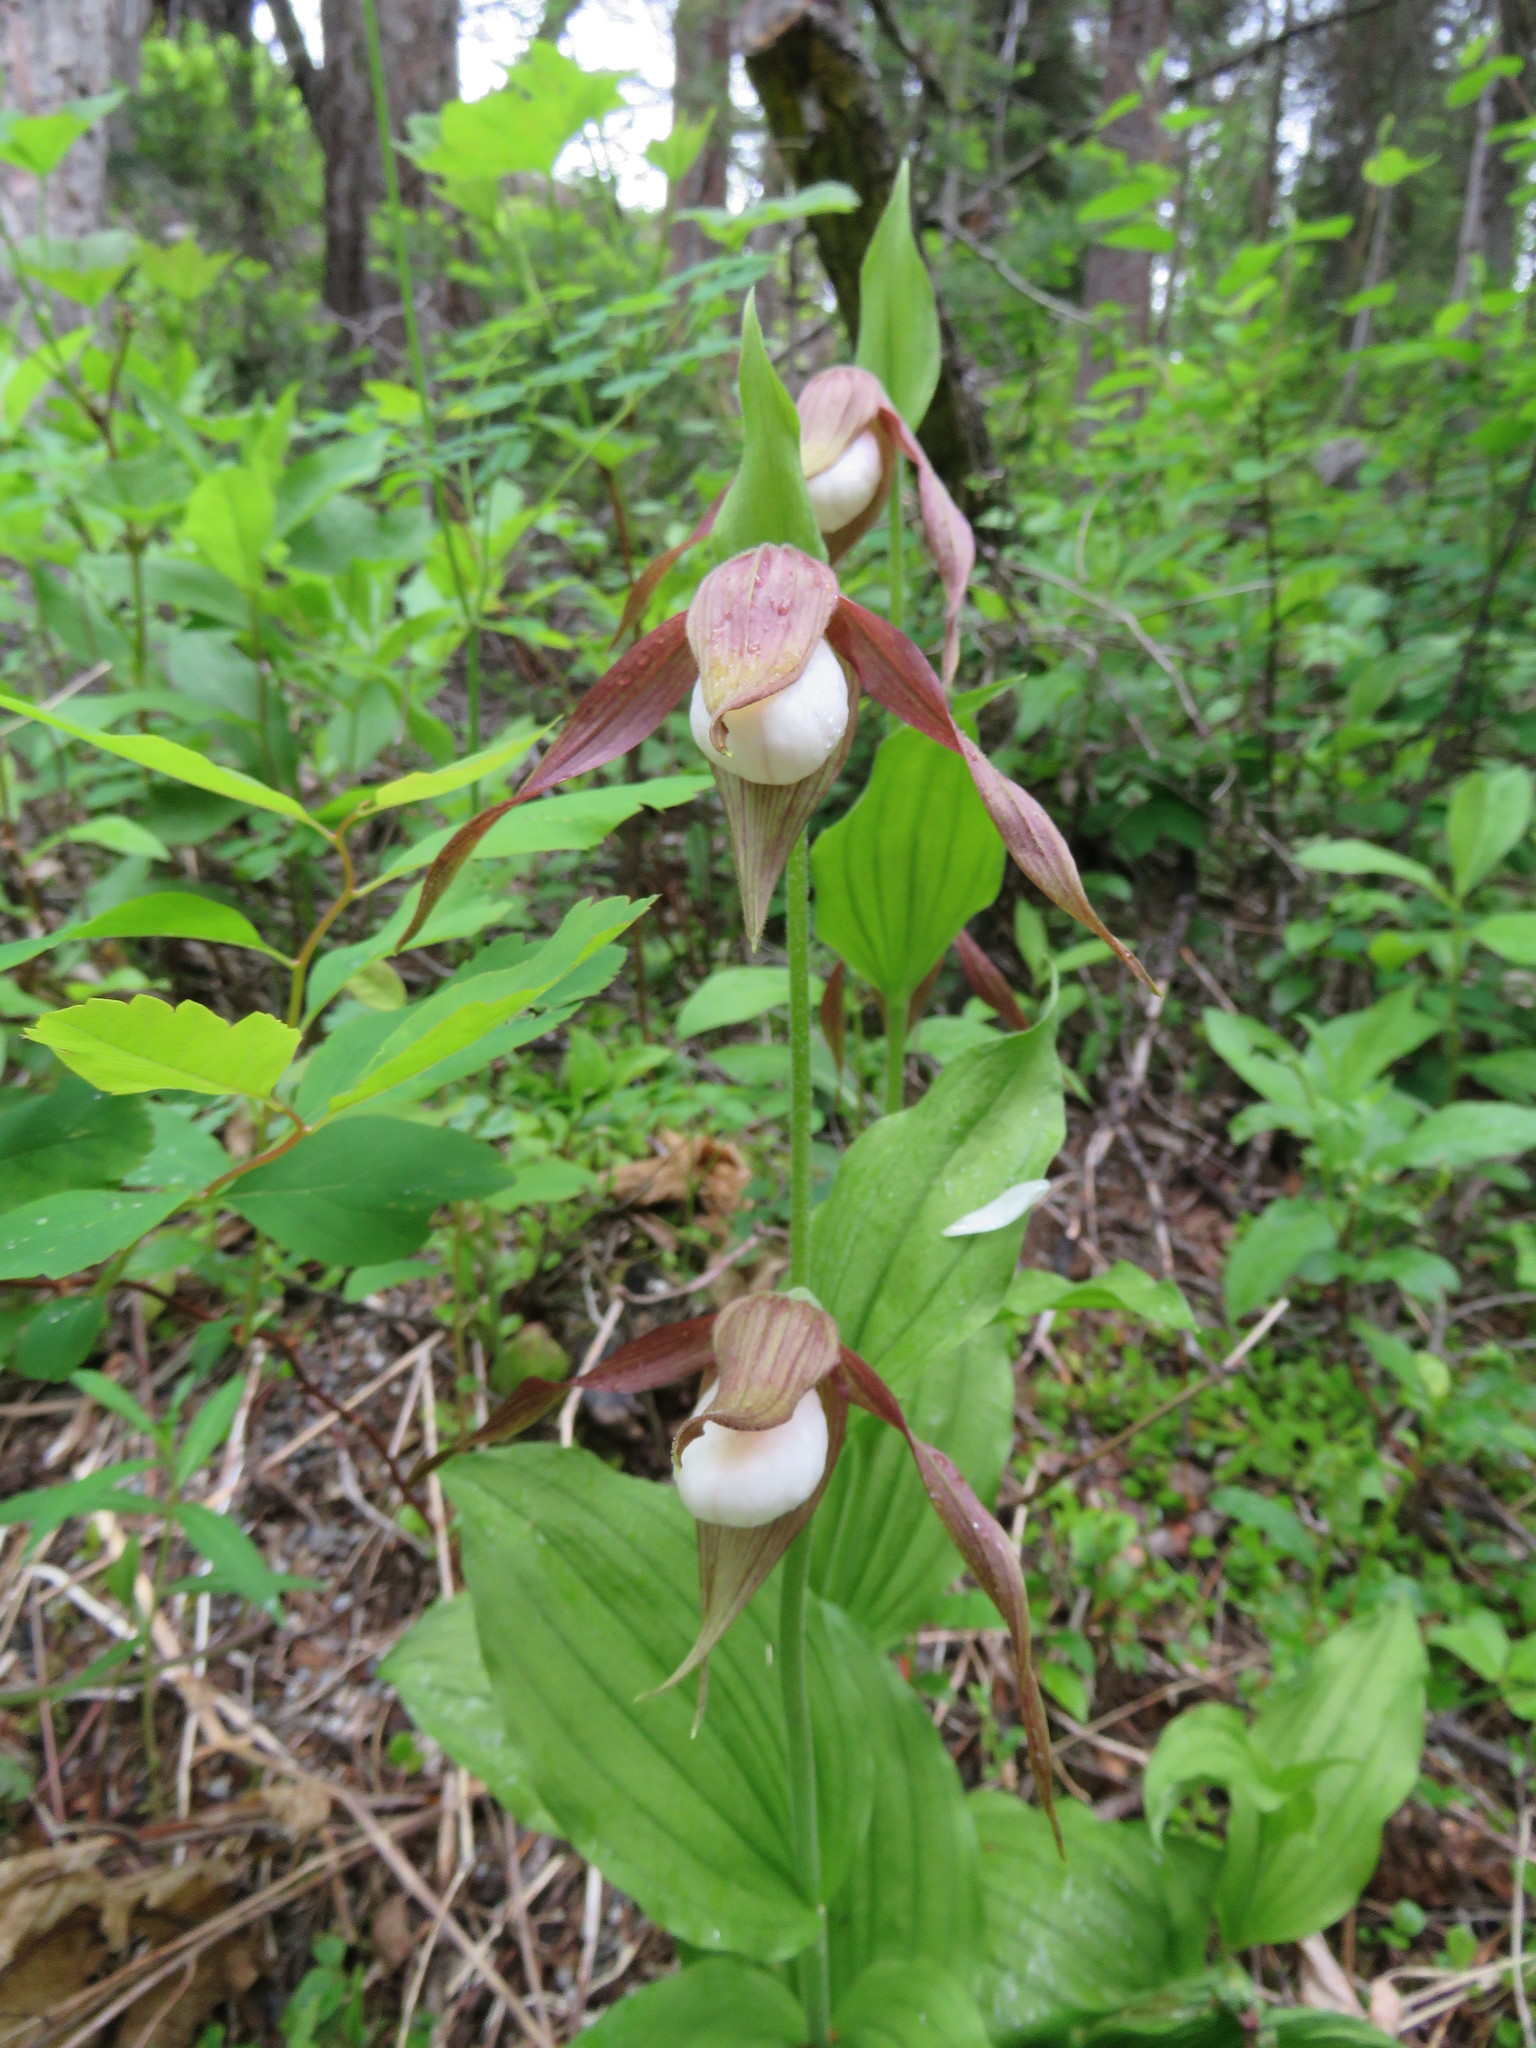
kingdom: Plantae
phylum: Tracheophyta
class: Liliopsida
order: Asparagales
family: Orchidaceae
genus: Cypripedium
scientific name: Cypripedium montanum
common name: Mountain lady's-slipper
